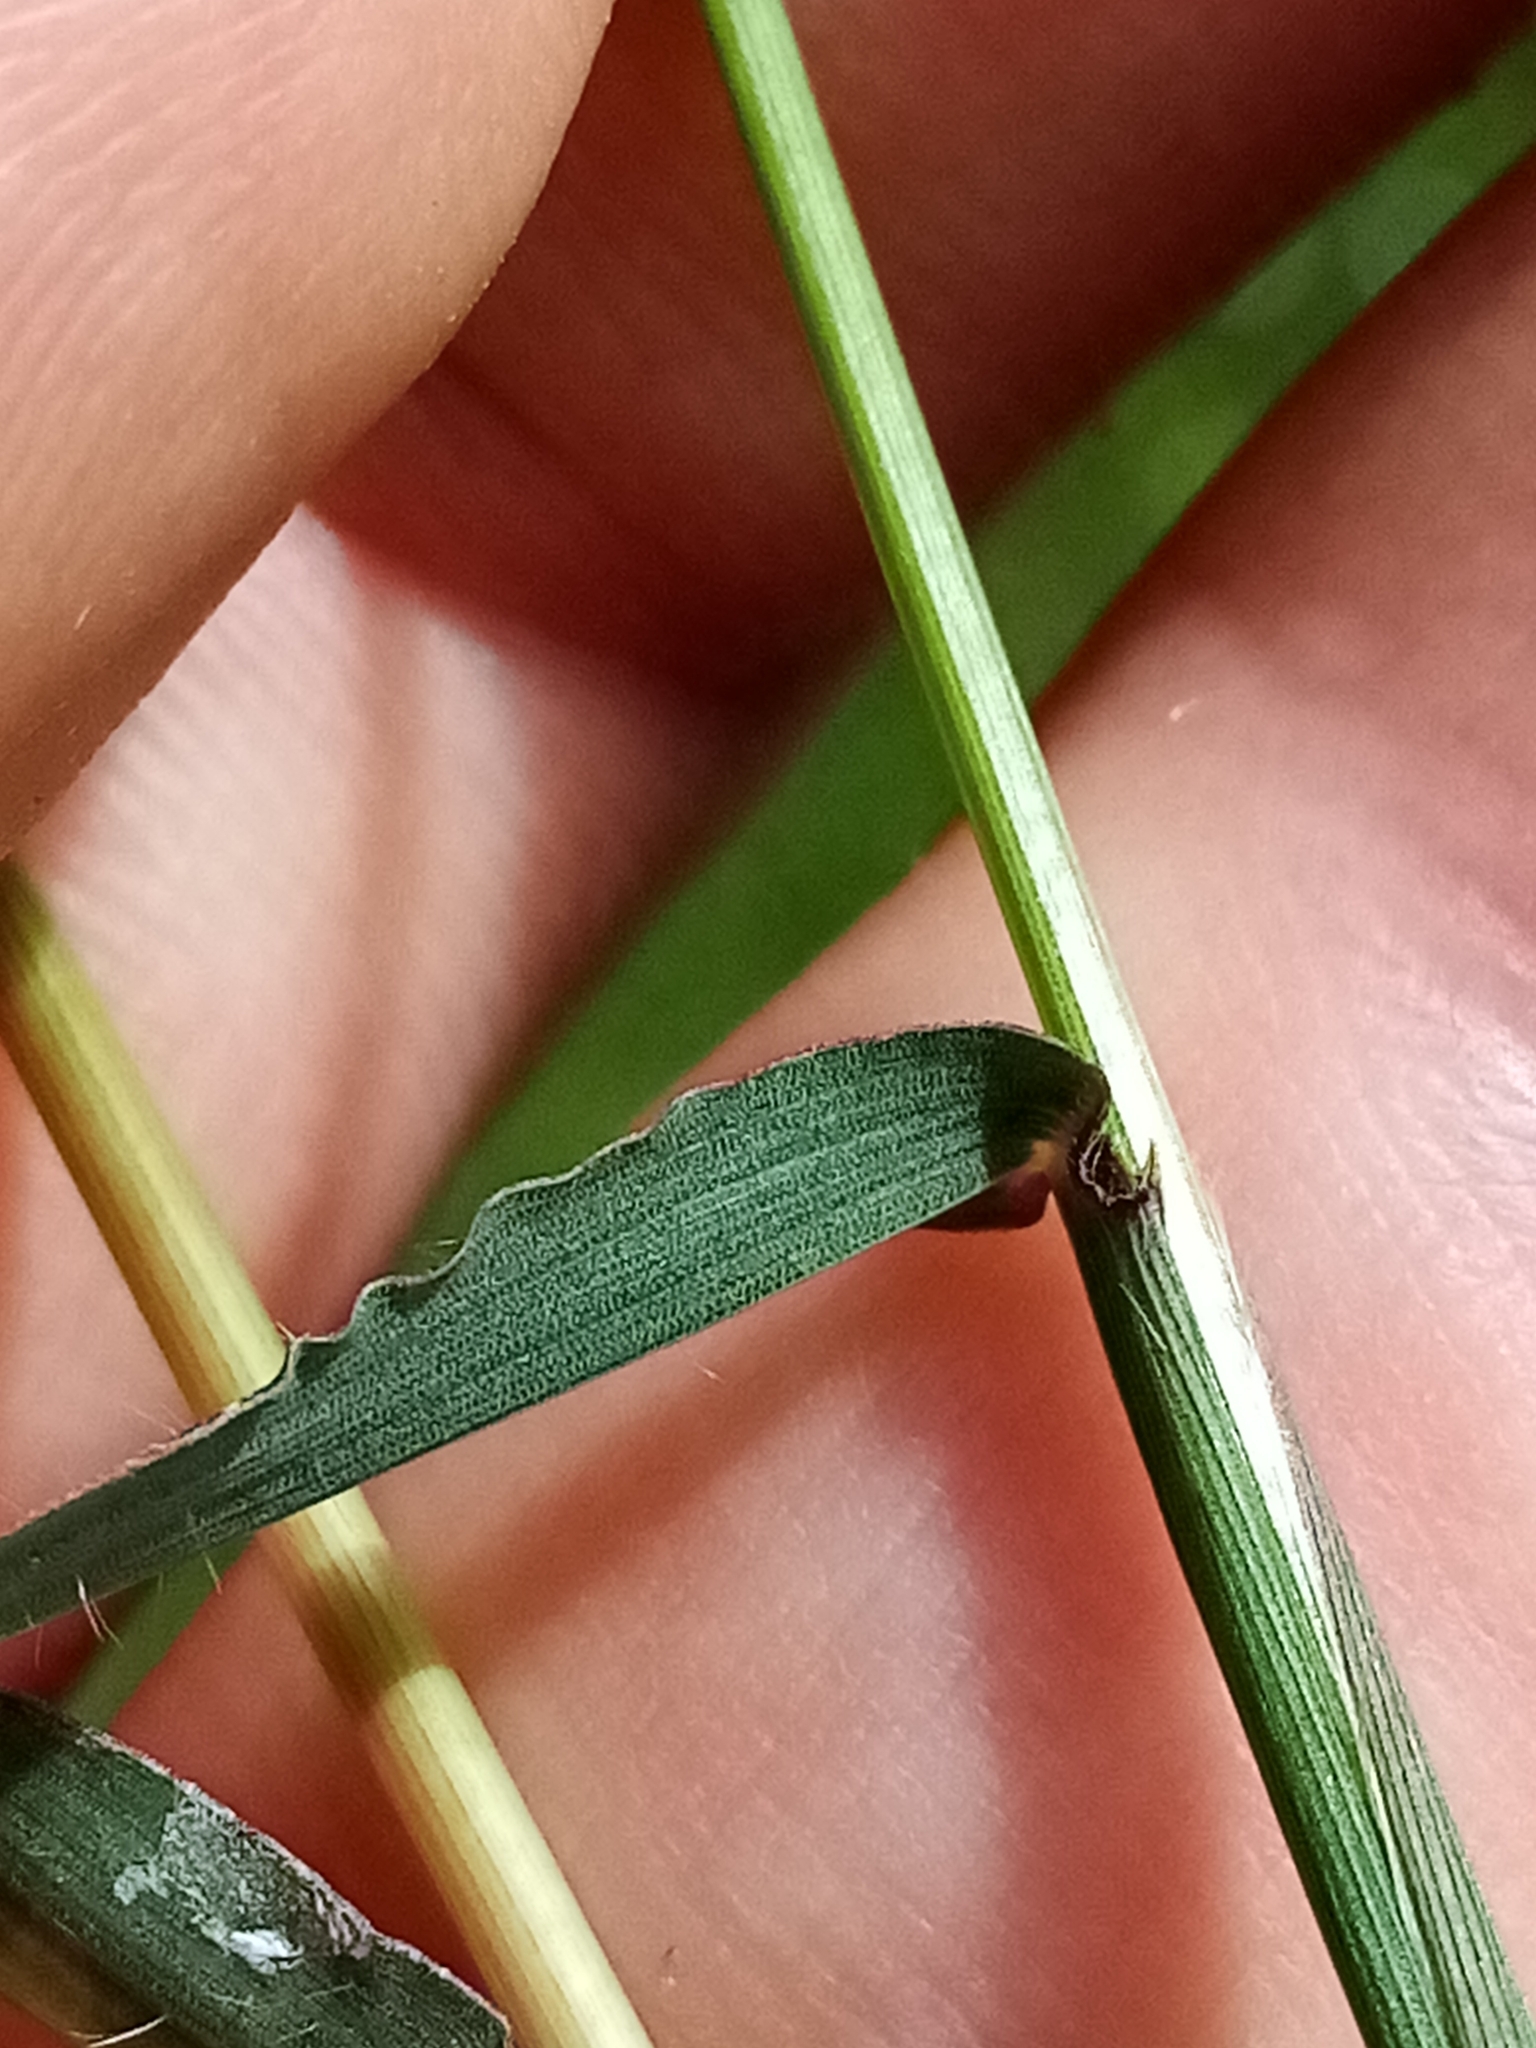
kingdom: Plantae
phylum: Tracheophyta
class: Liliopsida
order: Poales
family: Poaceae
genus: Digitaria
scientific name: Digitaria sanguinalis
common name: Hairy crabgrass
